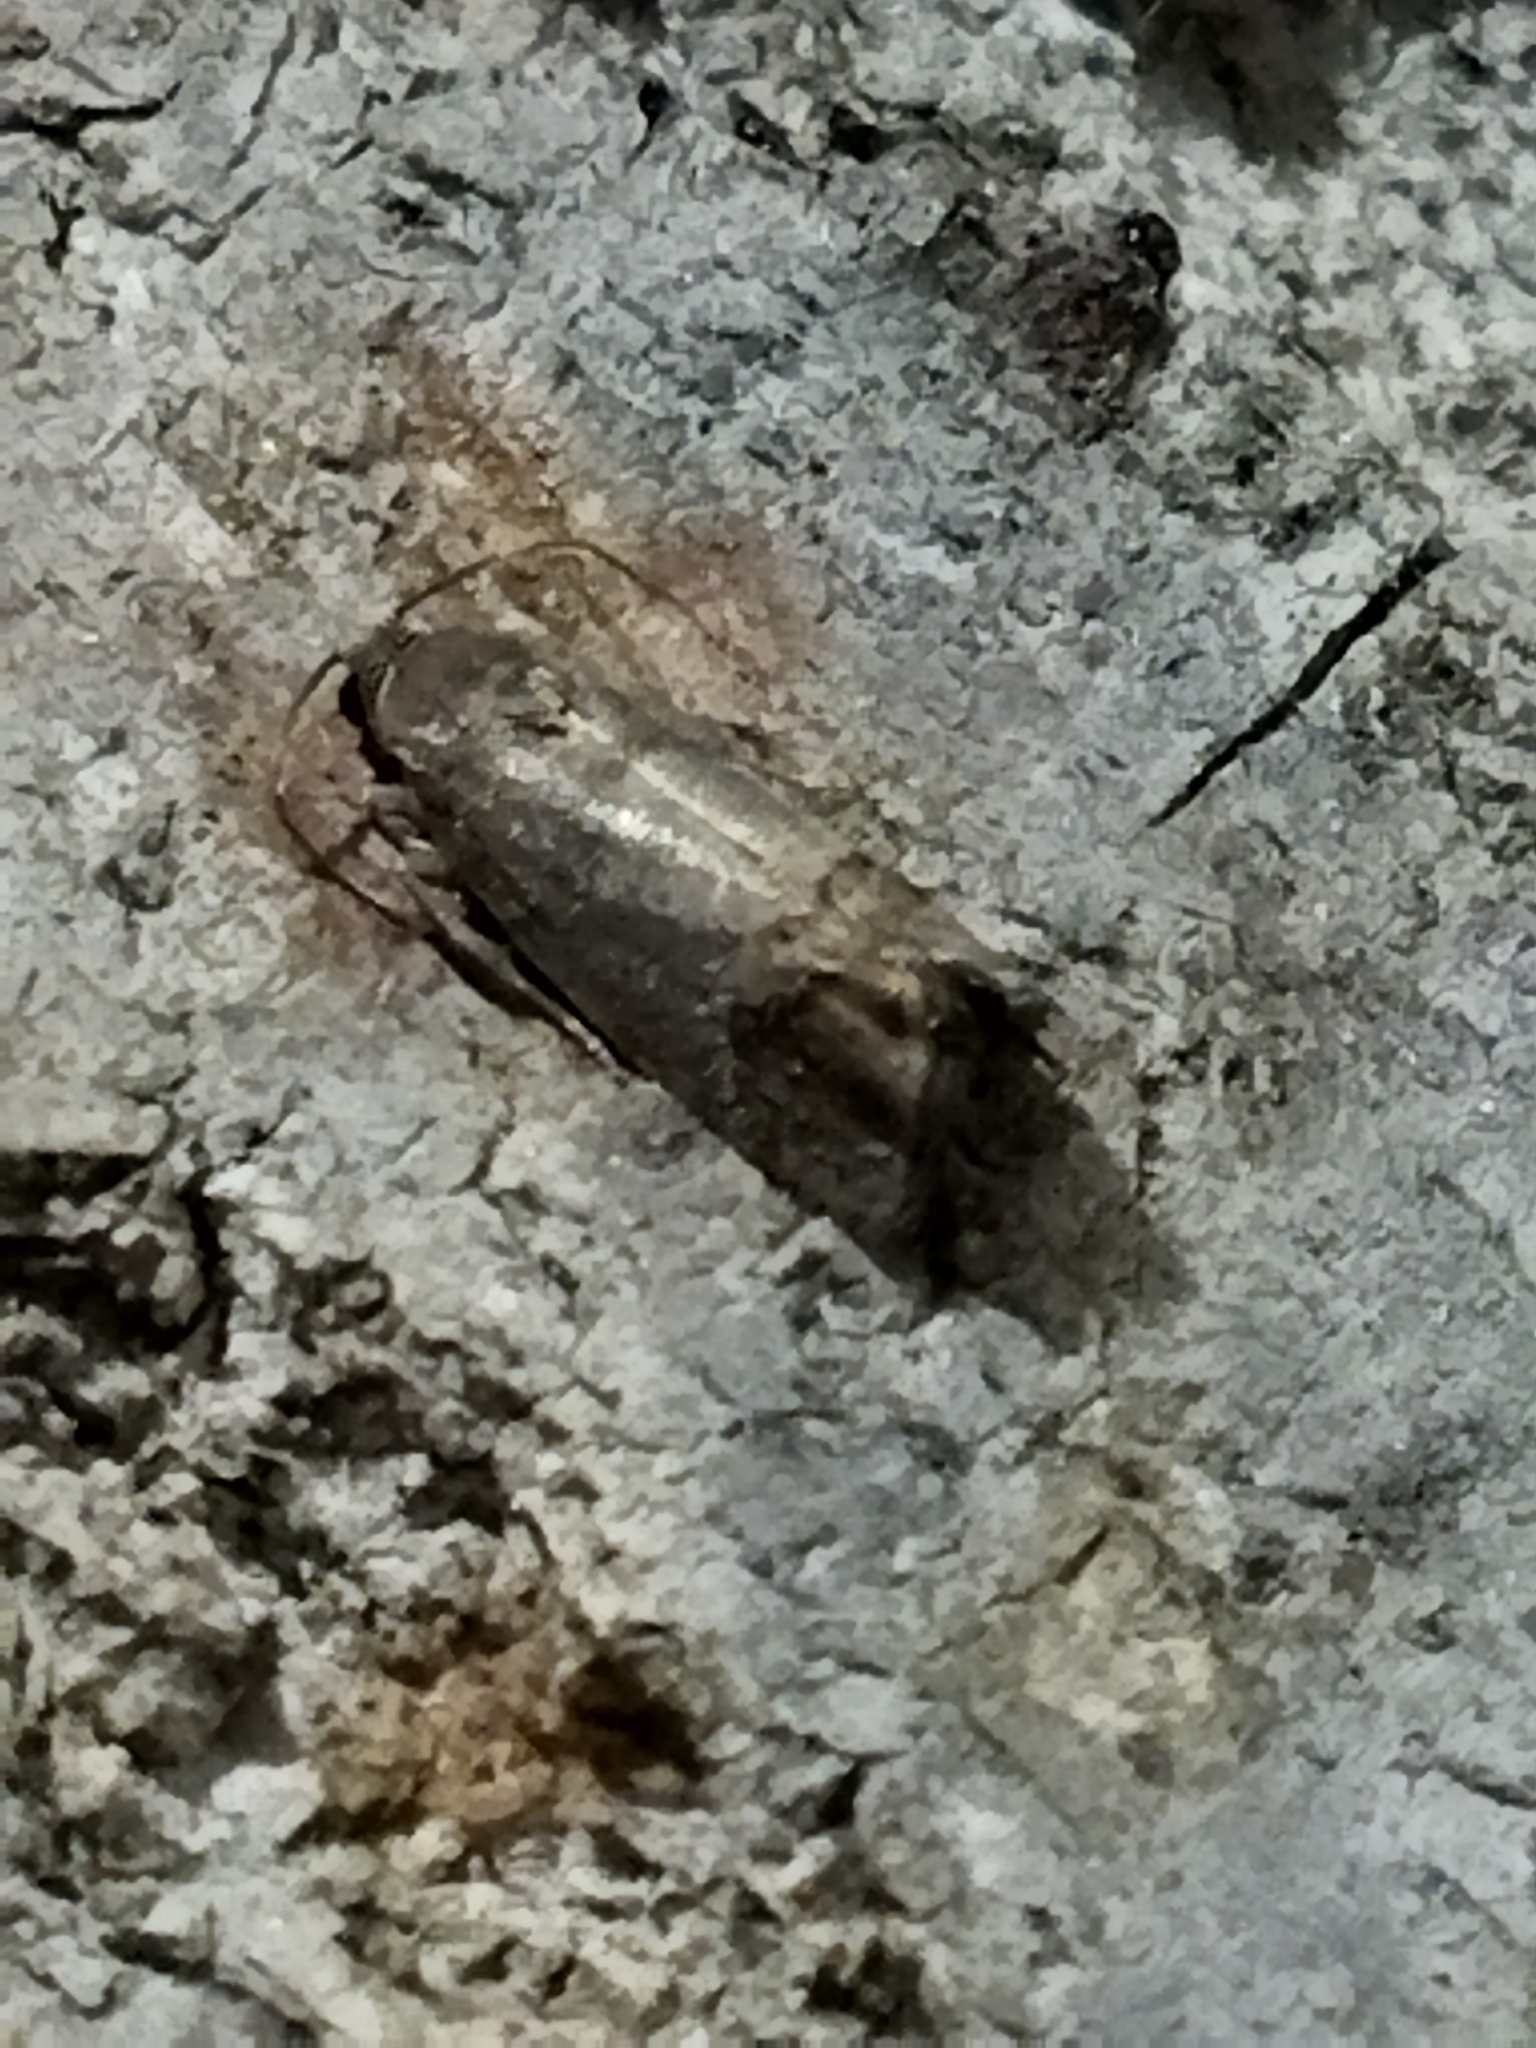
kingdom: Animalia
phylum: Arthropoda
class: Insecta
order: Lepidoptera
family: Tortricidae
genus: Cydia
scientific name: Cydia pomonella
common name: Codling moth
